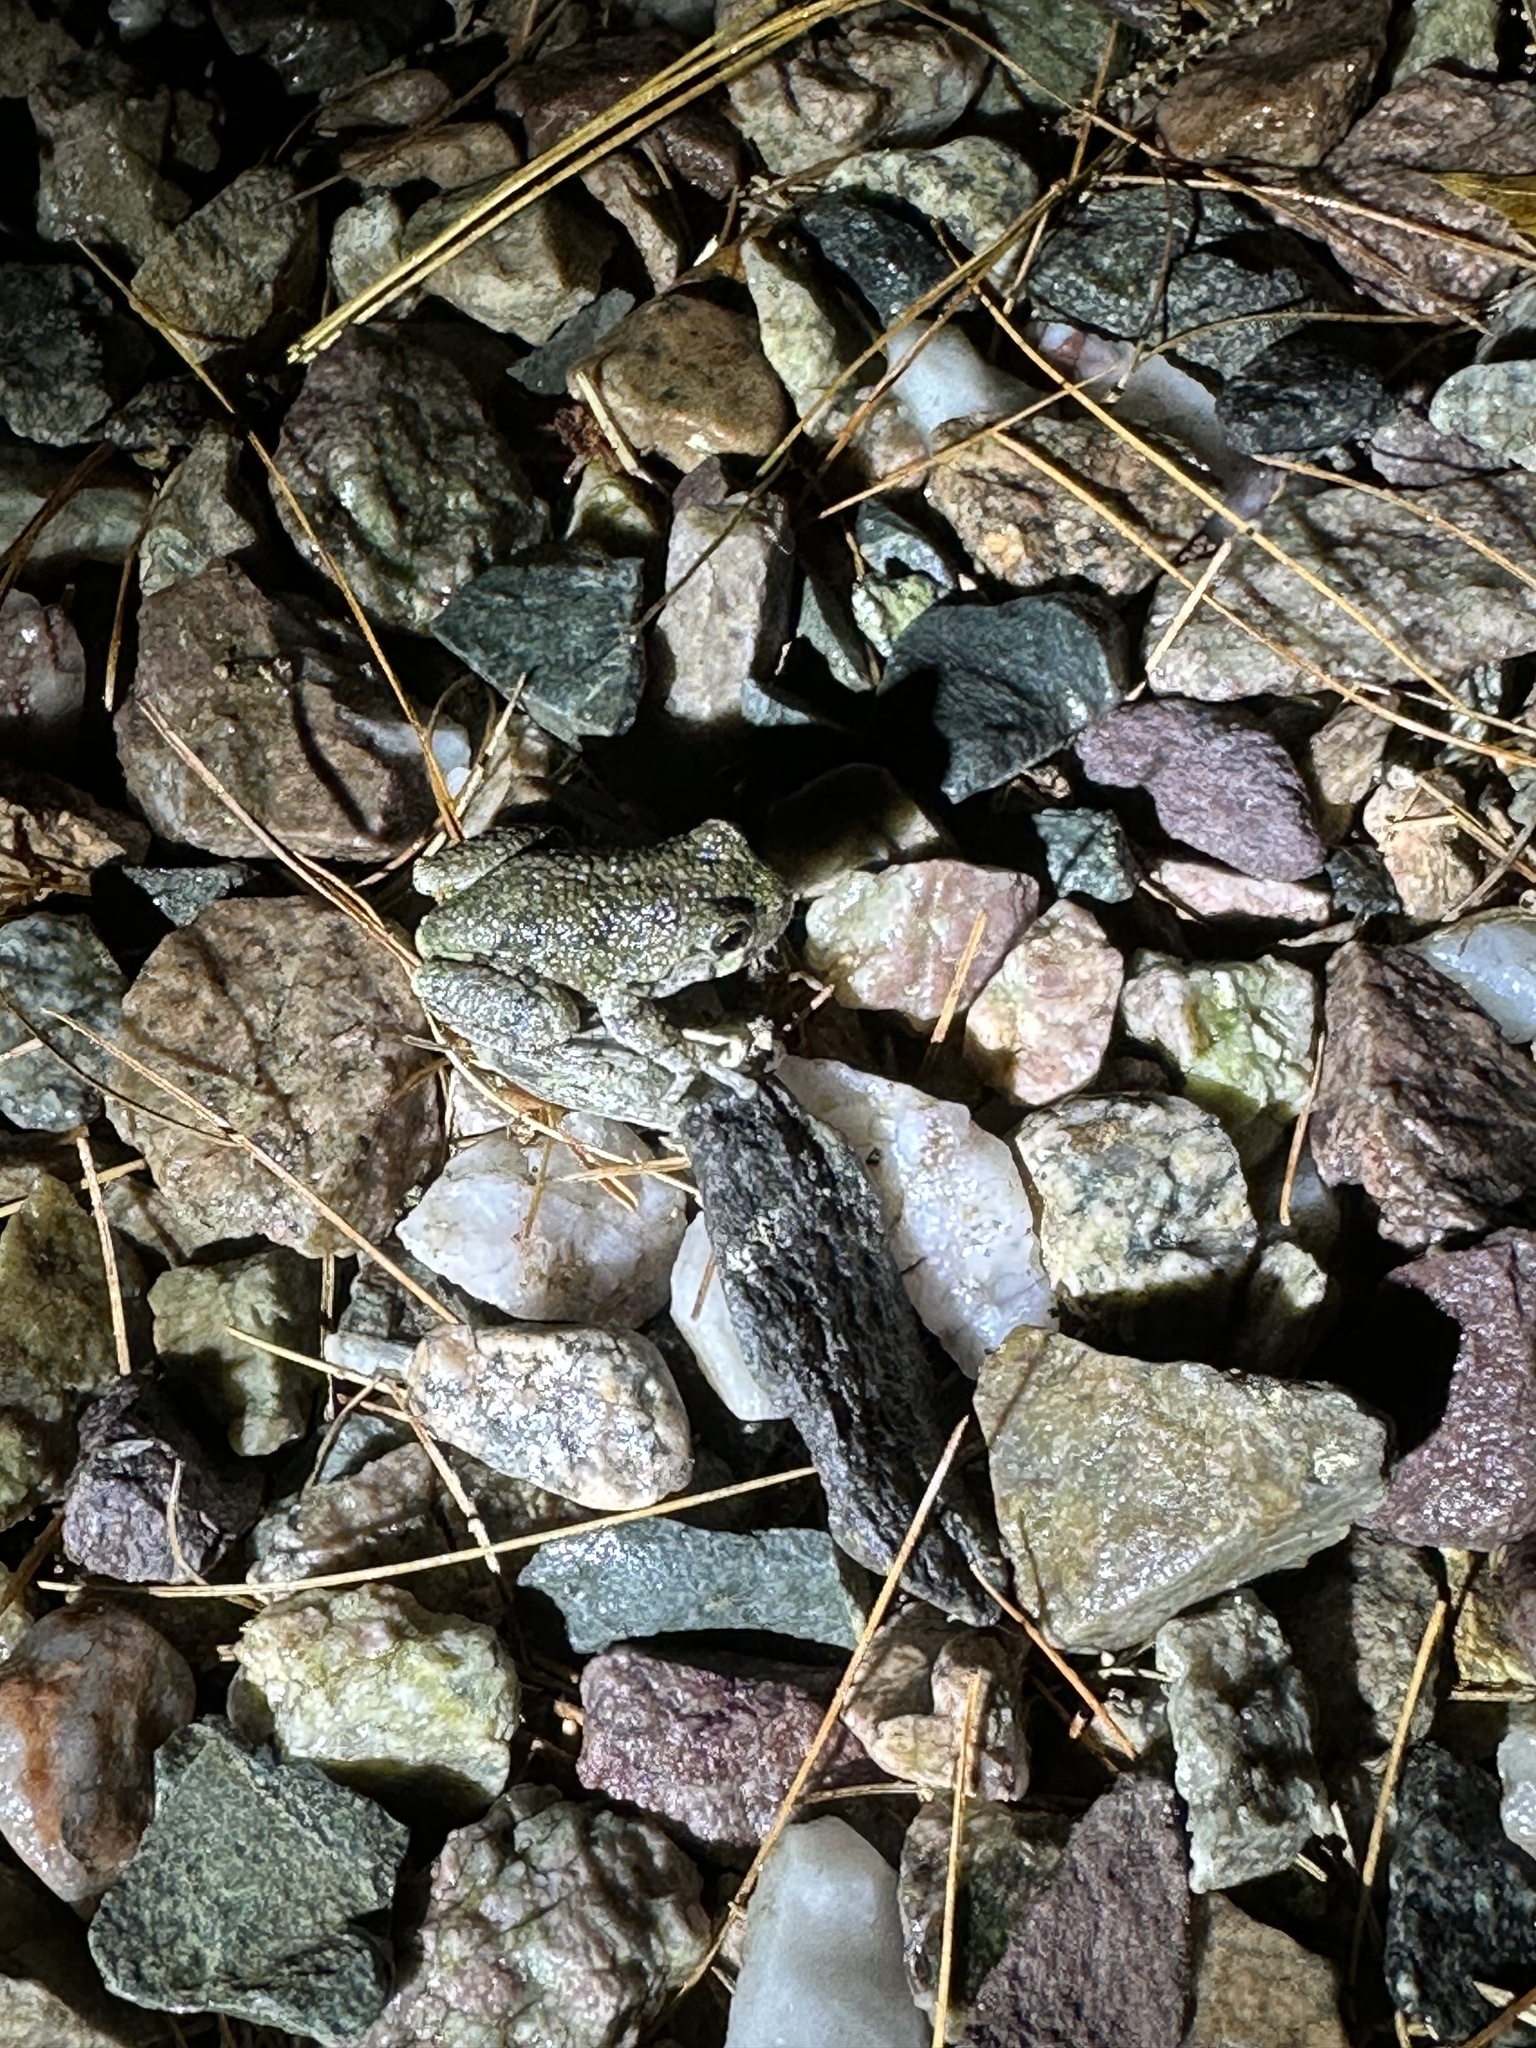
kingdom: Animalia
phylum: Chordata
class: Amphibia
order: Anura
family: Hylidae
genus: Dryophytes
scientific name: Dryophytes versicolor
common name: Gray treefrog
